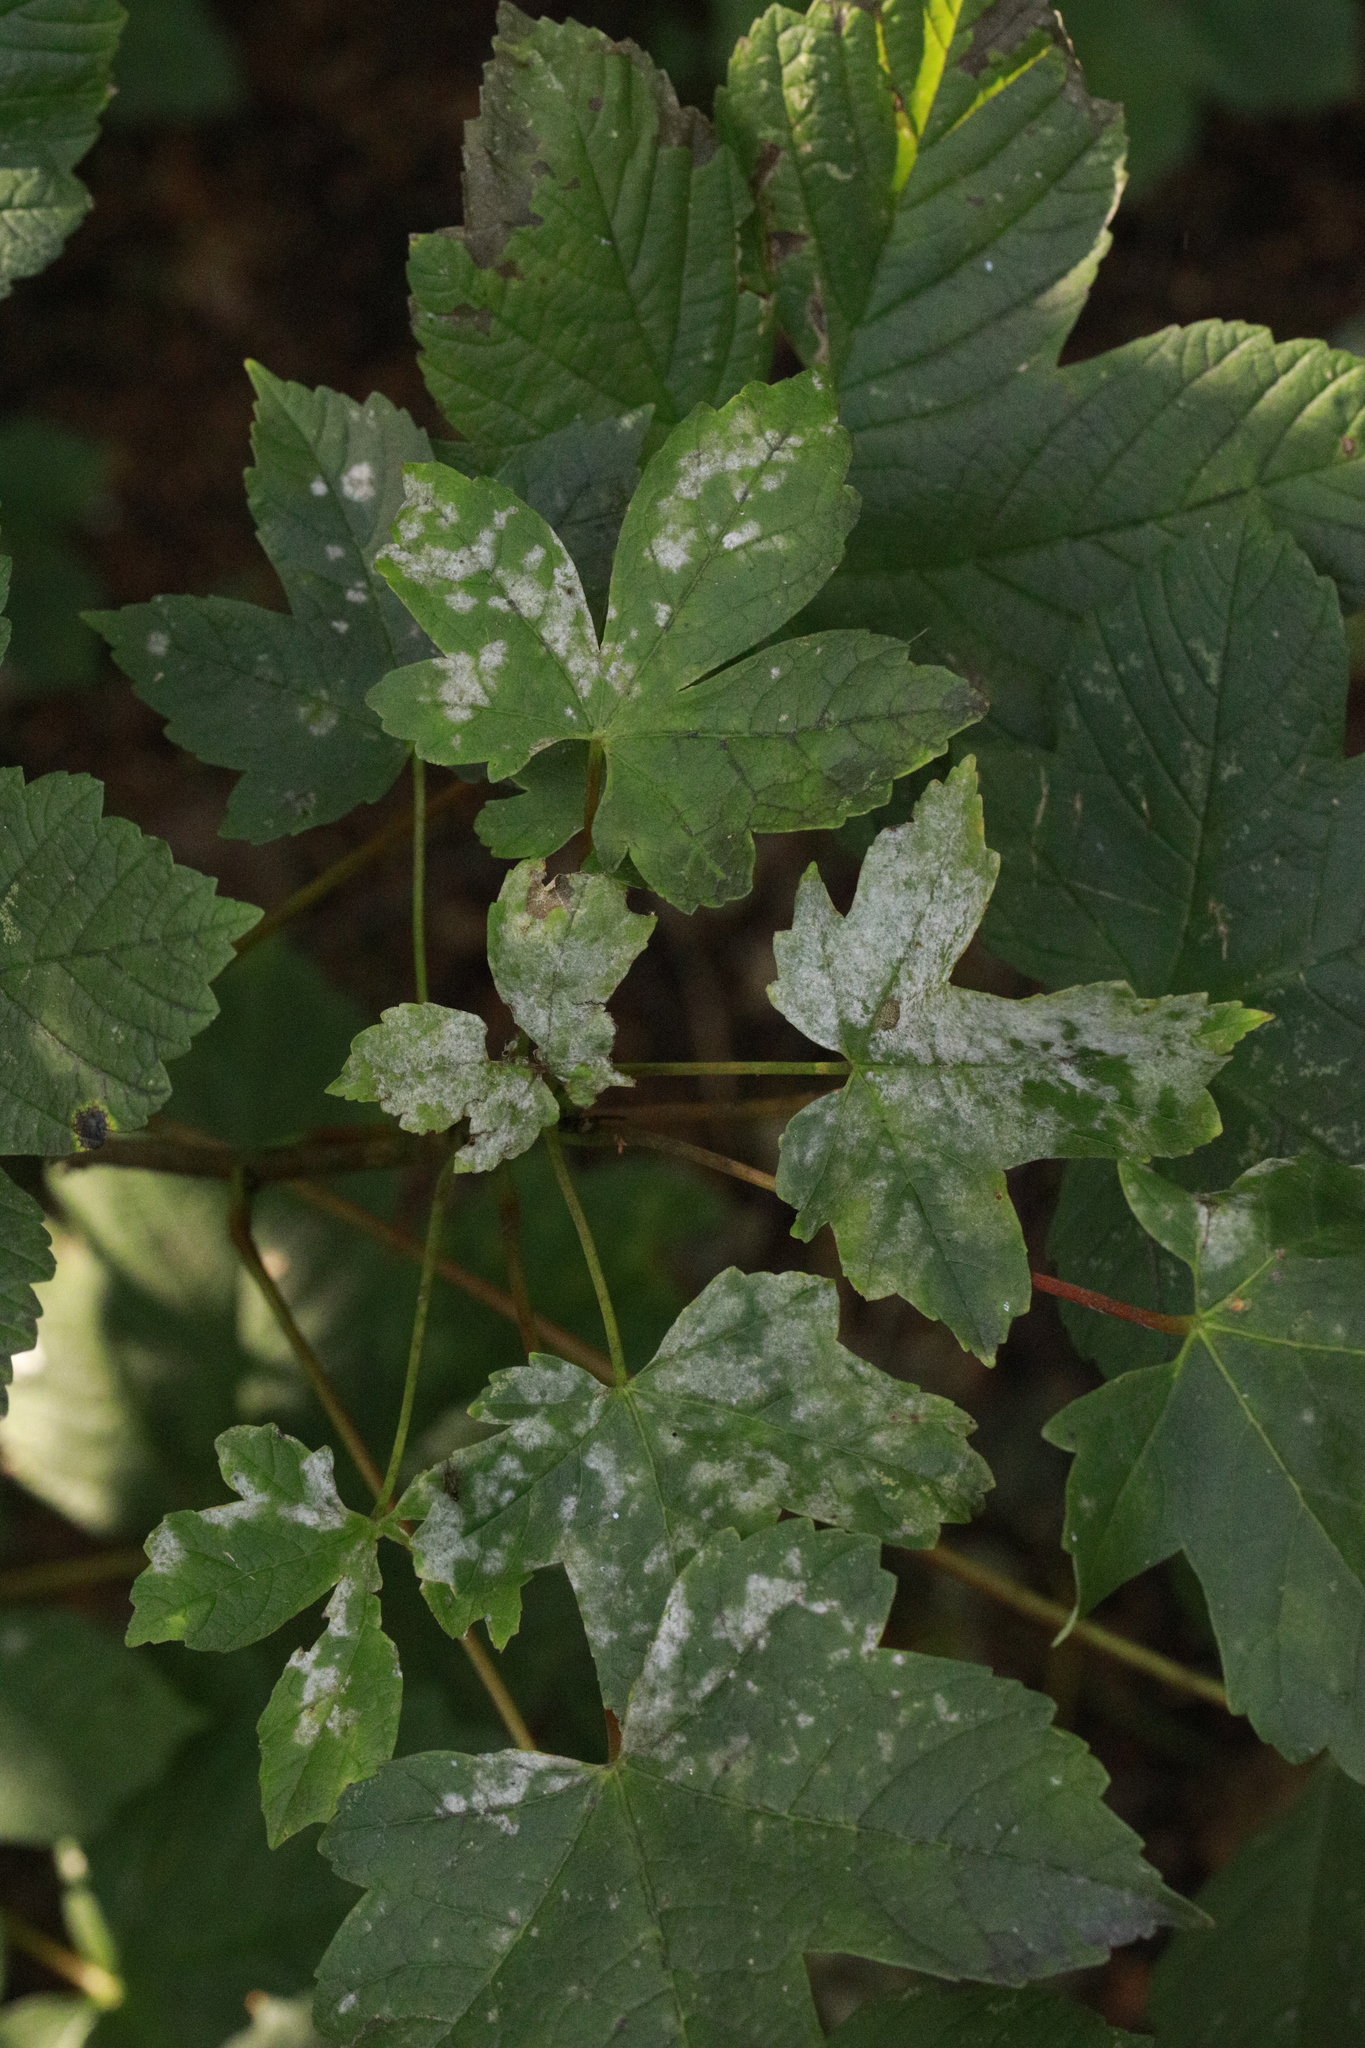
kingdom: Fungi
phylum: Ascomycota
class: Leotiomycetes
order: Helotiales
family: Erysiphaceae
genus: Sawadaea
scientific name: Sawadaea bicornis
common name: Maple mildew
